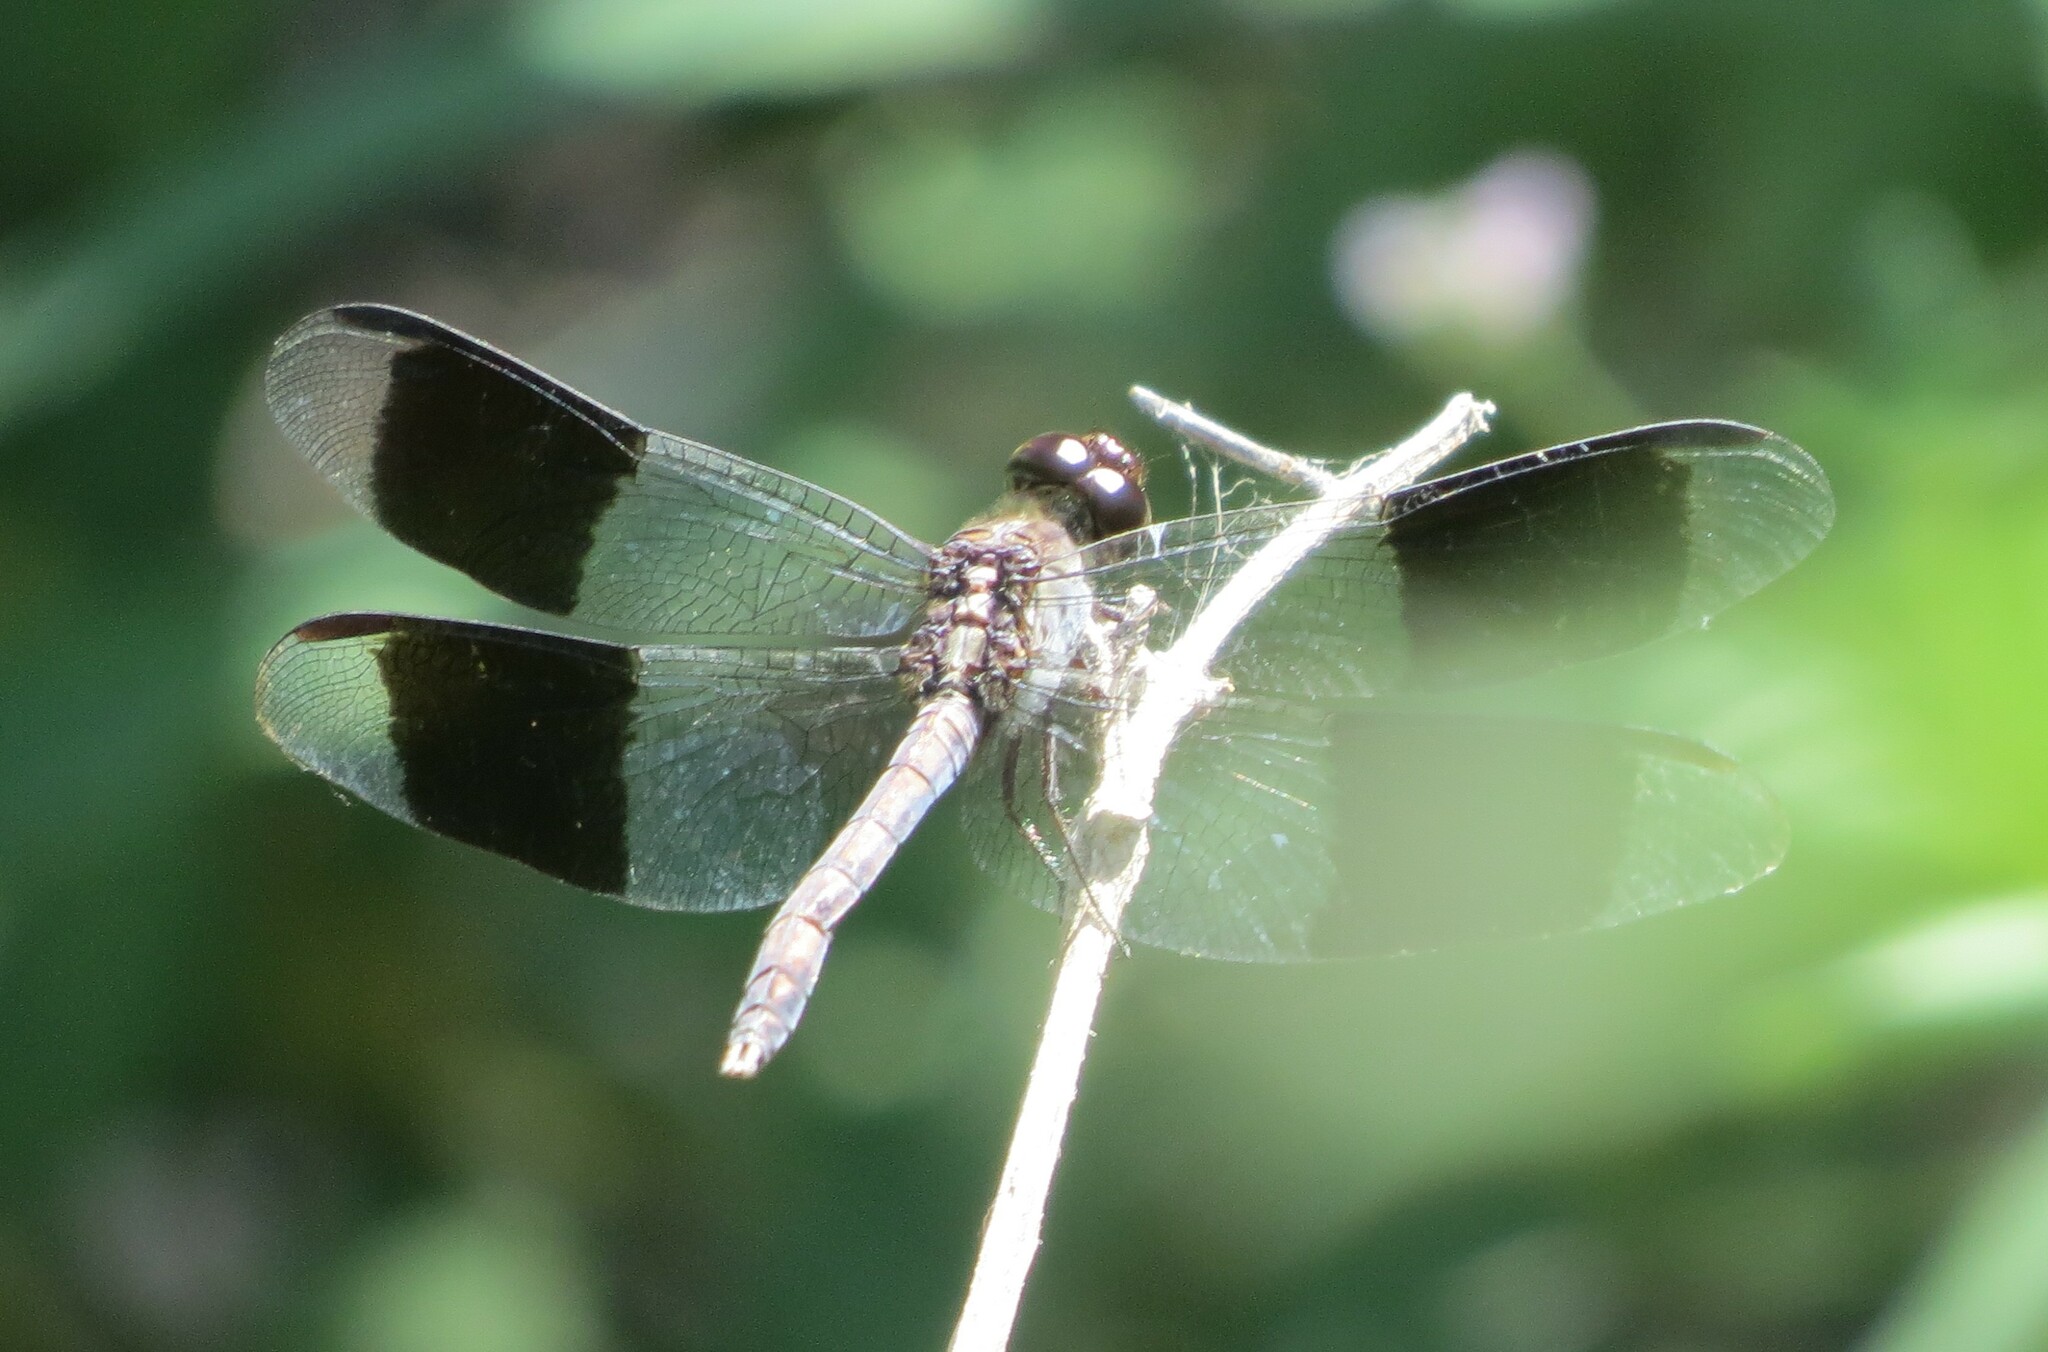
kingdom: Animalia
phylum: Arthropoda
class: Insecta
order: Odonata
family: Libellulidae
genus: Erythrodiplax
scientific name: Erythrodiplax umbrata
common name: Band-winged dragonlet
